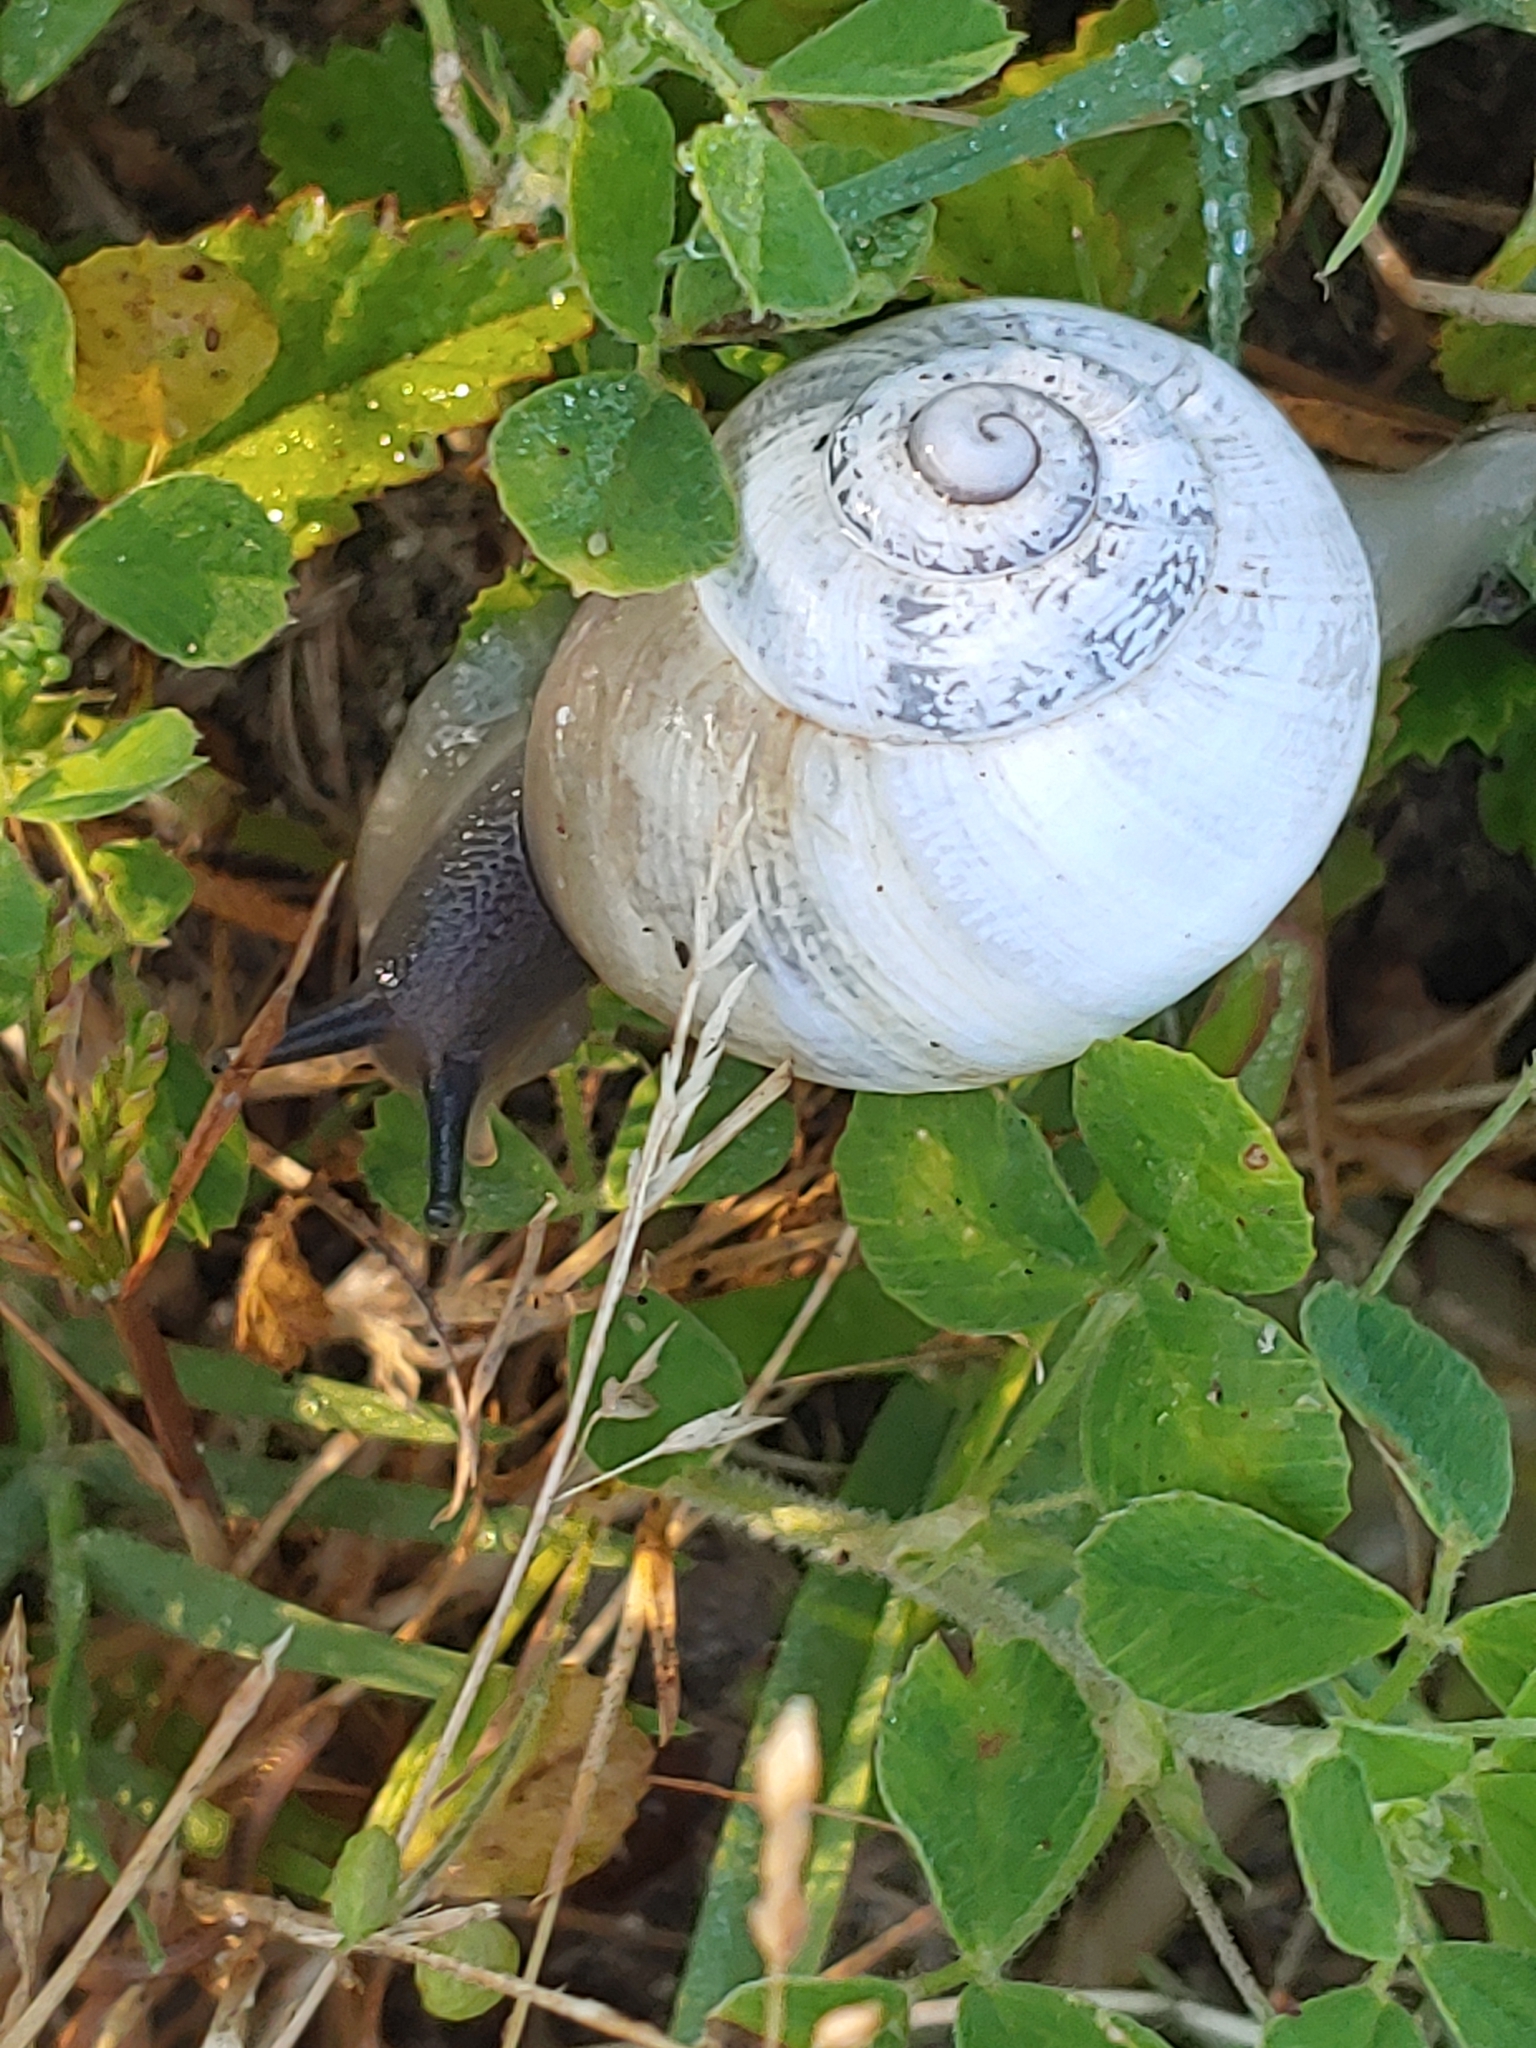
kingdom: Animalia
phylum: Mollusca
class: Gastropoda
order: Stylommatophora
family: Helicidae
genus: Otala
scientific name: Otala lactea
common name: Milk snail
